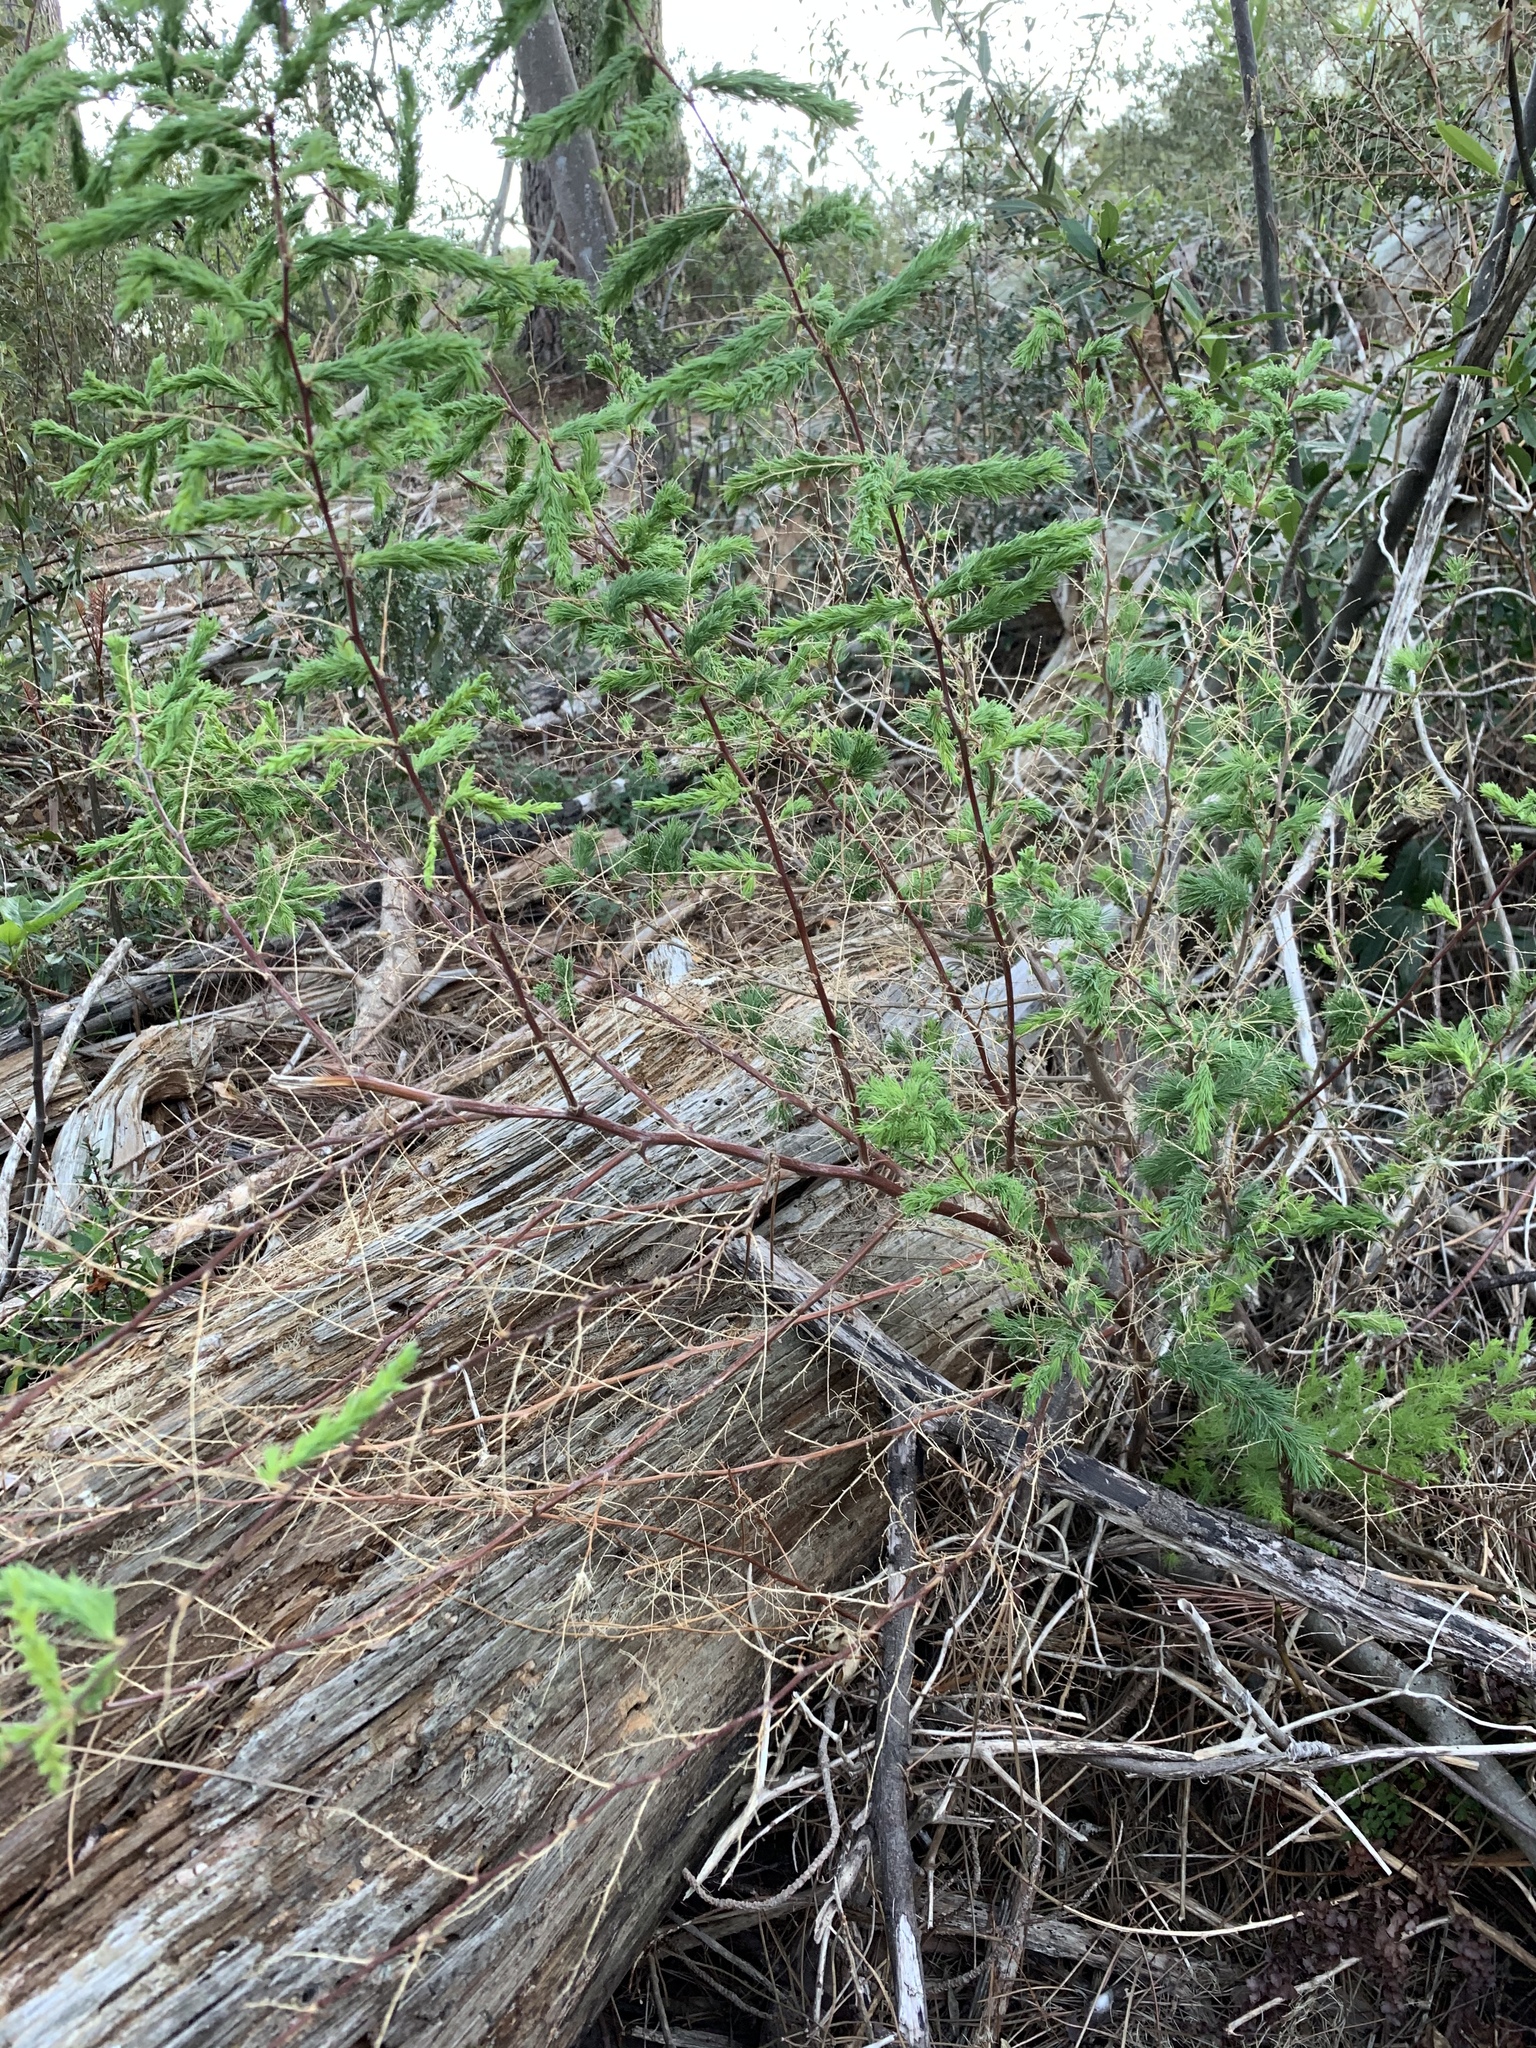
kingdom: Plantae
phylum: Tracheophyta
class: Liliopsida
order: Asparagales
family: Asparagaceae
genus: Asparagus
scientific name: Asparagus rubicundus
